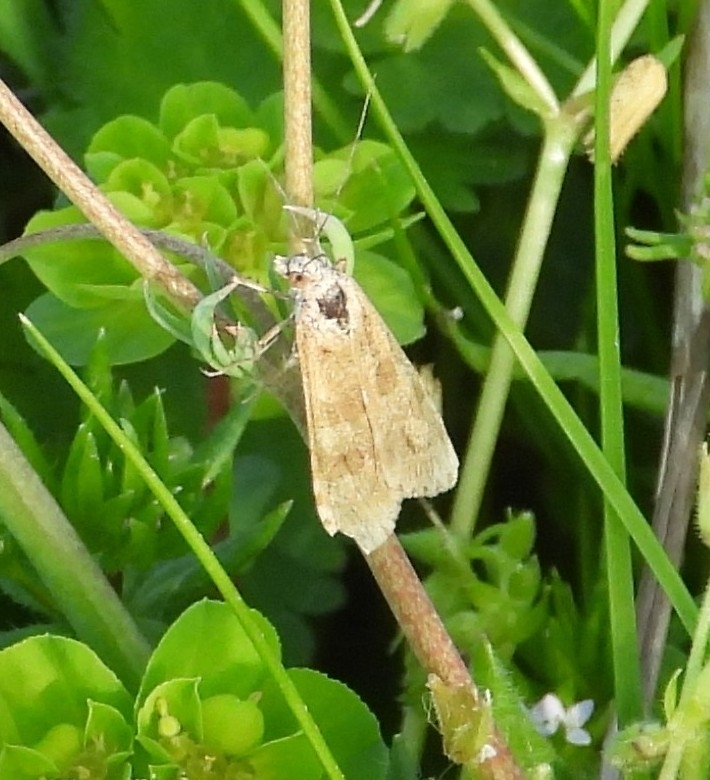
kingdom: Animalia
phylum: Arthropoda
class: Insecta
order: Lepidoptera
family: Crambidae
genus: Nomophila
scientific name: Nomophila noctuella
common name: Rush veneer
